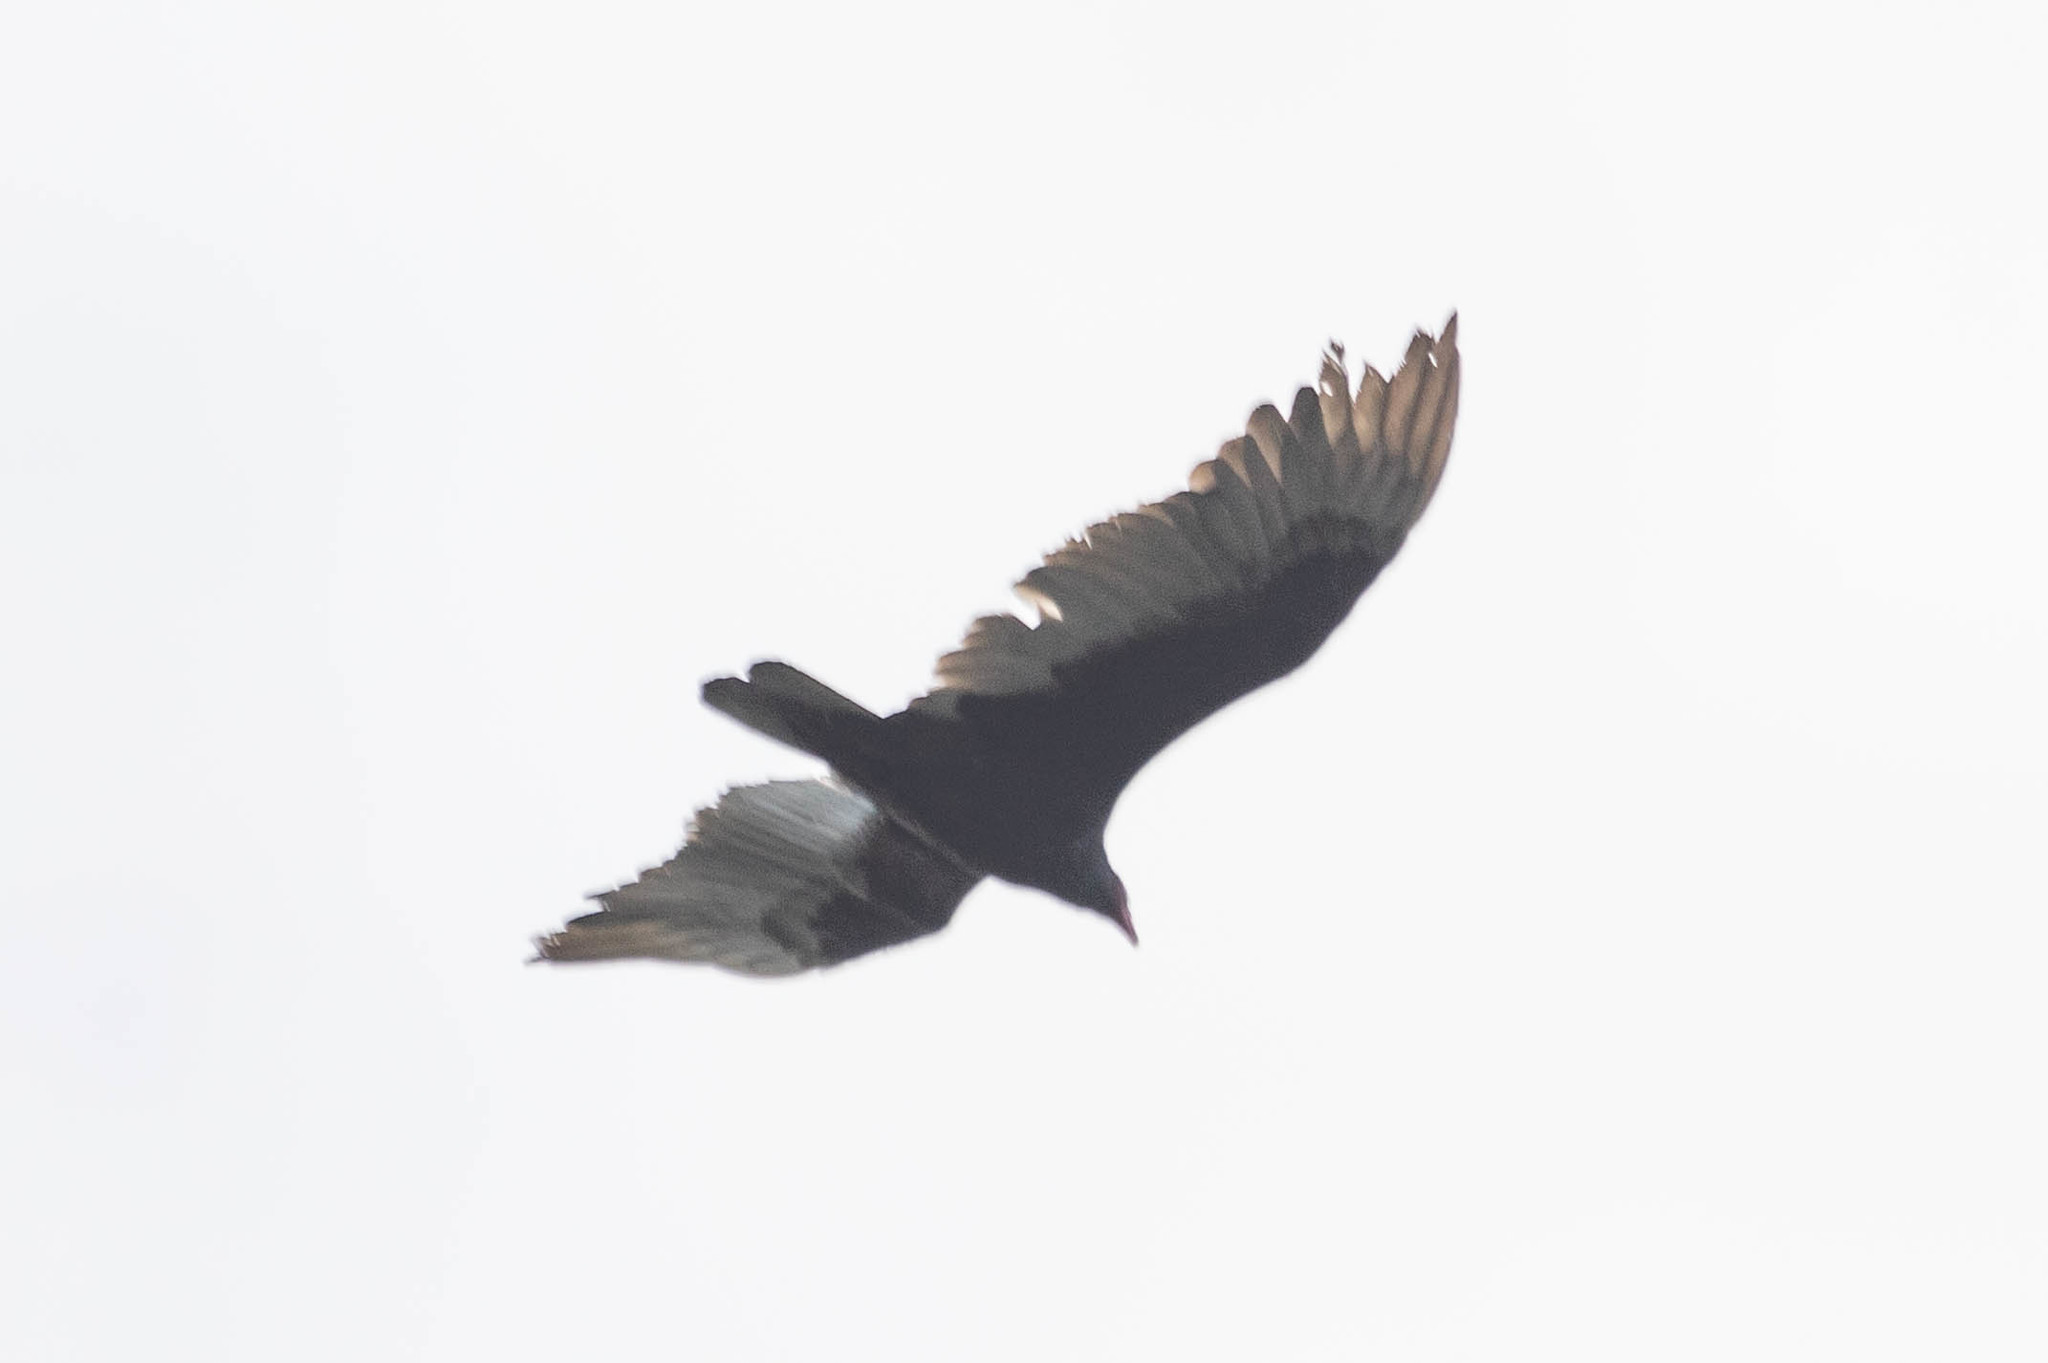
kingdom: Animalia
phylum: Chordata
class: Aves
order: Accipitriformes
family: Cathartidae
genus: Cathartes
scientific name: Cathartes aura
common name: Turkey vulture
